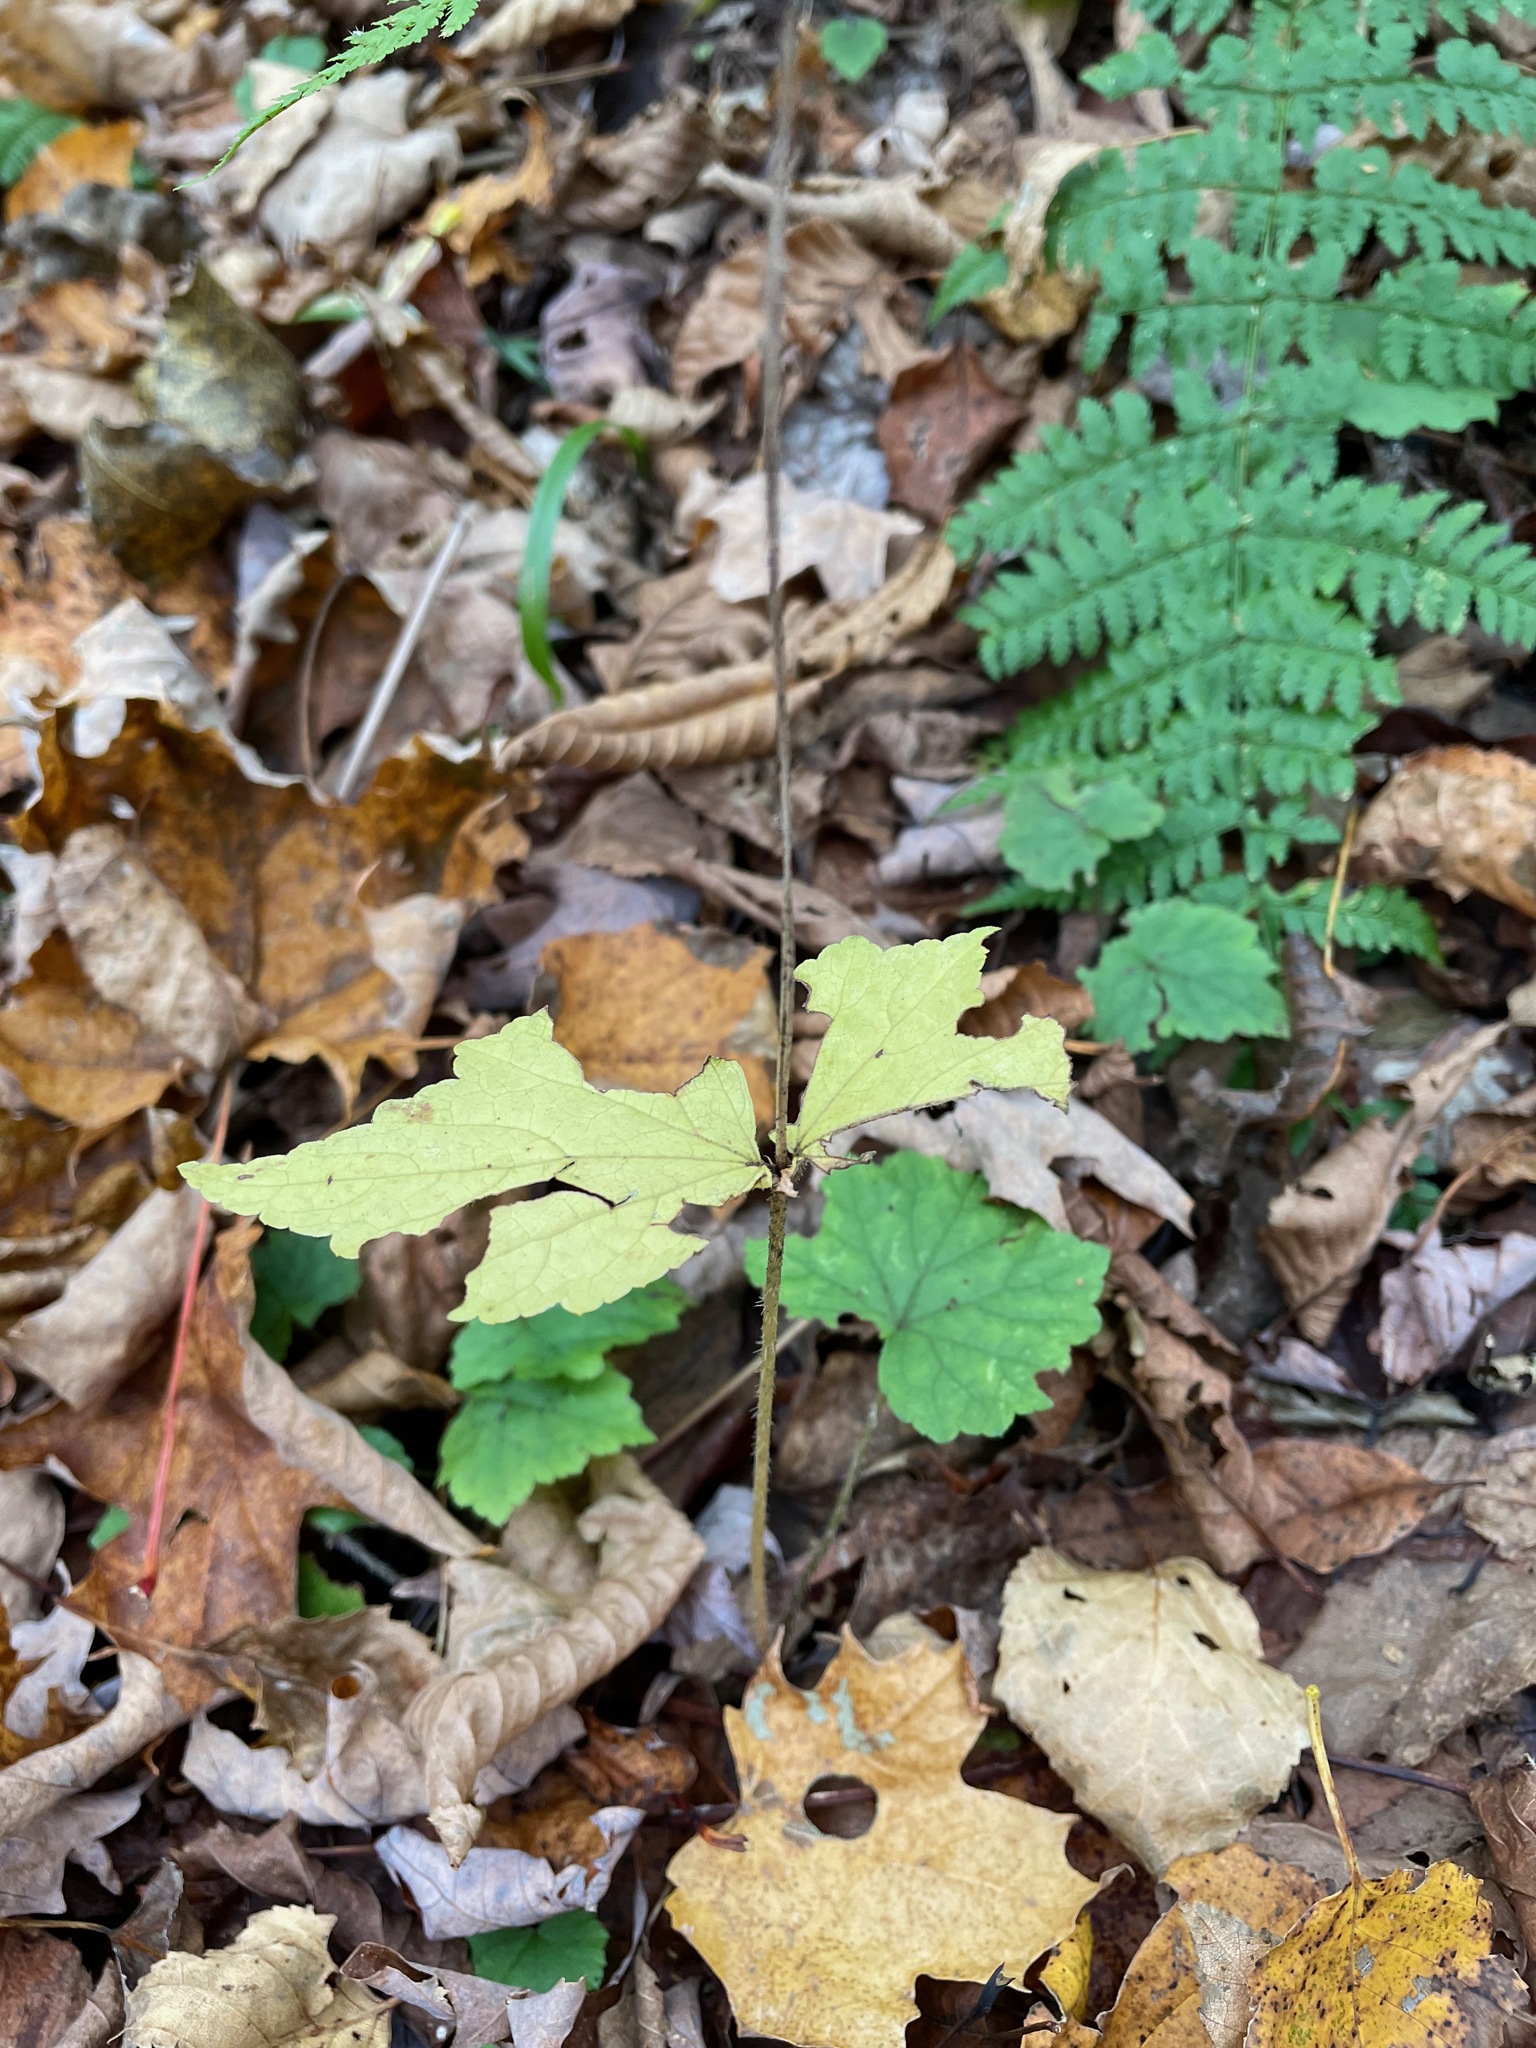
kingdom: Plantae
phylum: Tracheophyta
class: Magnoliopsida
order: Saxifragales
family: Saxifragaceae
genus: Mitella
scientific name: Mitella diphylla
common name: Coolwort
